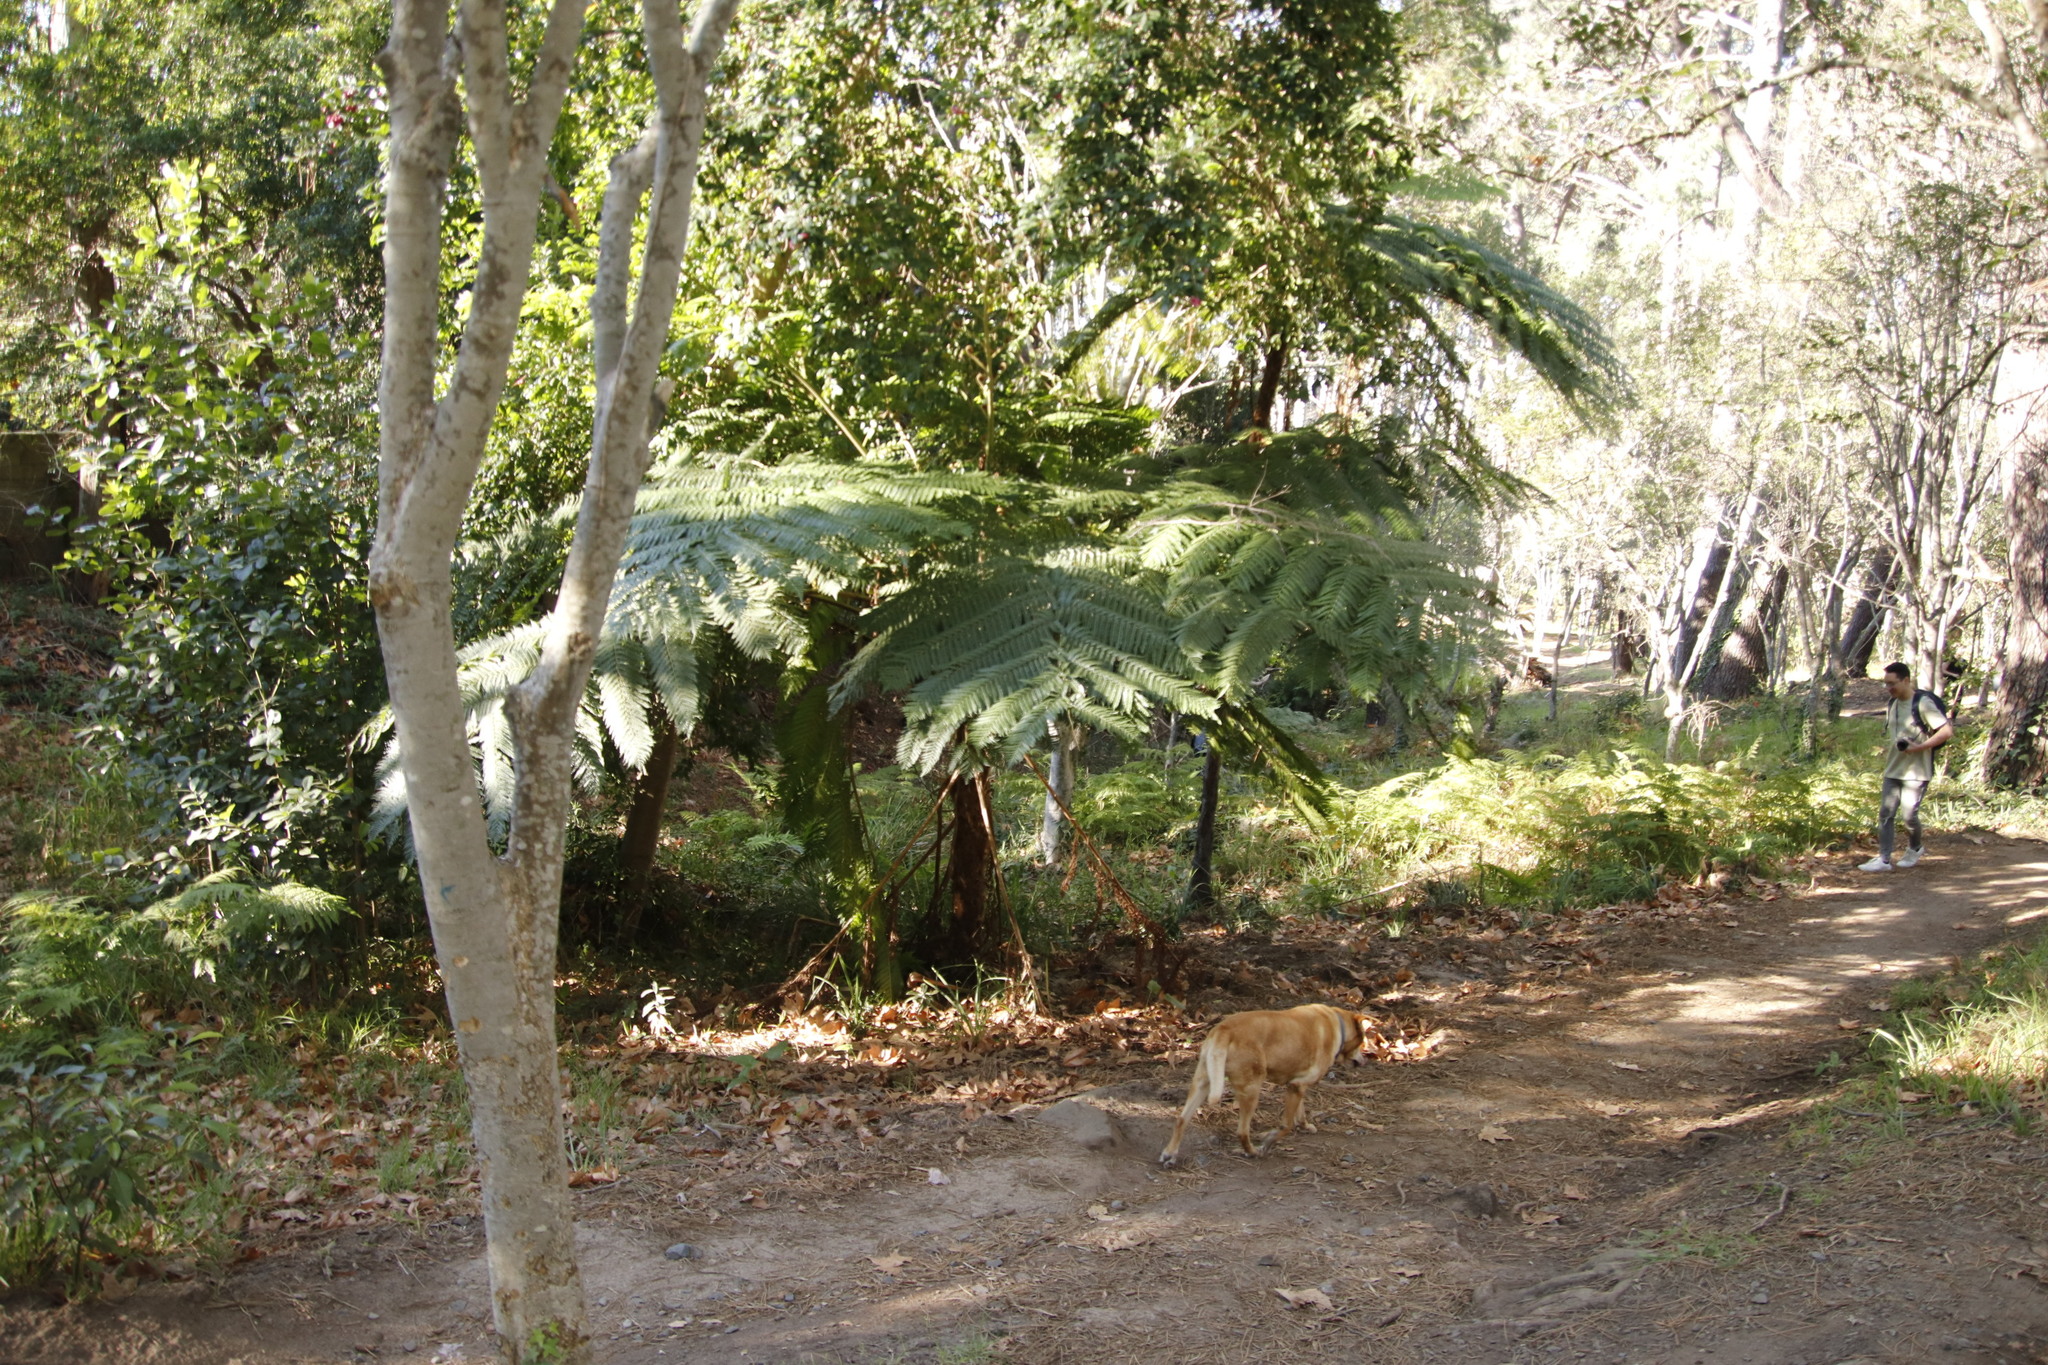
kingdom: Plantae
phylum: Tracheophyta
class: Polypodiopsida
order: Cyatheales
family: Cyatheaceae
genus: Sphaeropteris
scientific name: Sphaeropteris cooperi
